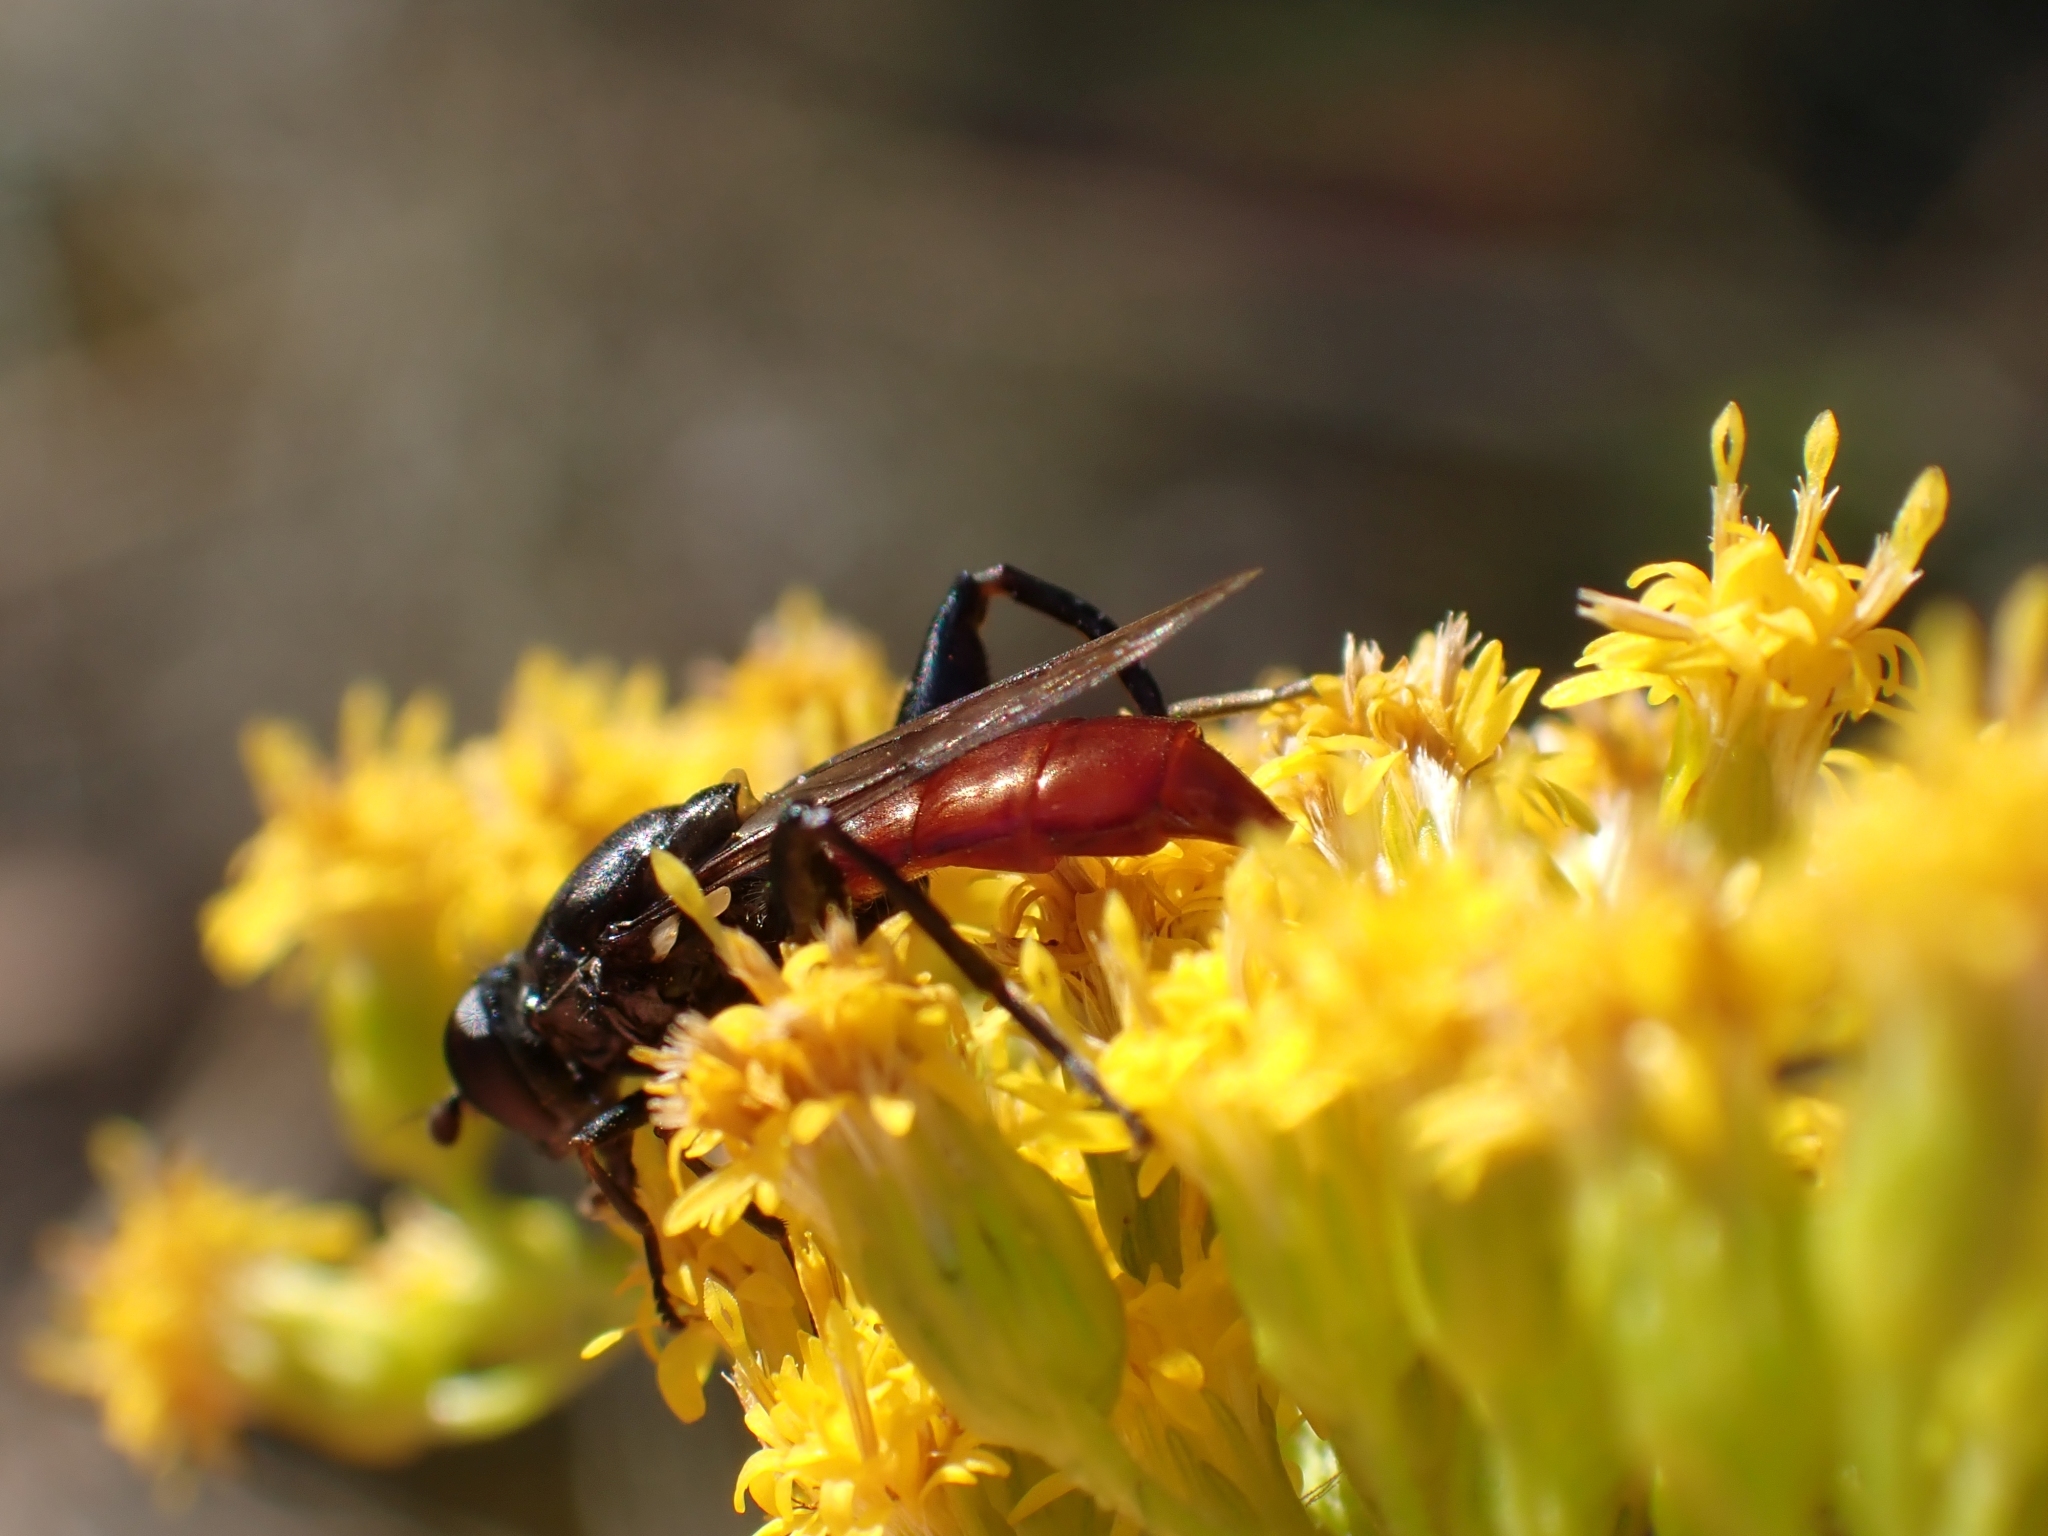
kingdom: Animalia
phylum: Arthropoda
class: Insecta
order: Diptera
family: Syrphidae
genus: Chalcosyrphus
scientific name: Chalcosyrphus piger
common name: Short-haired leafwalker
